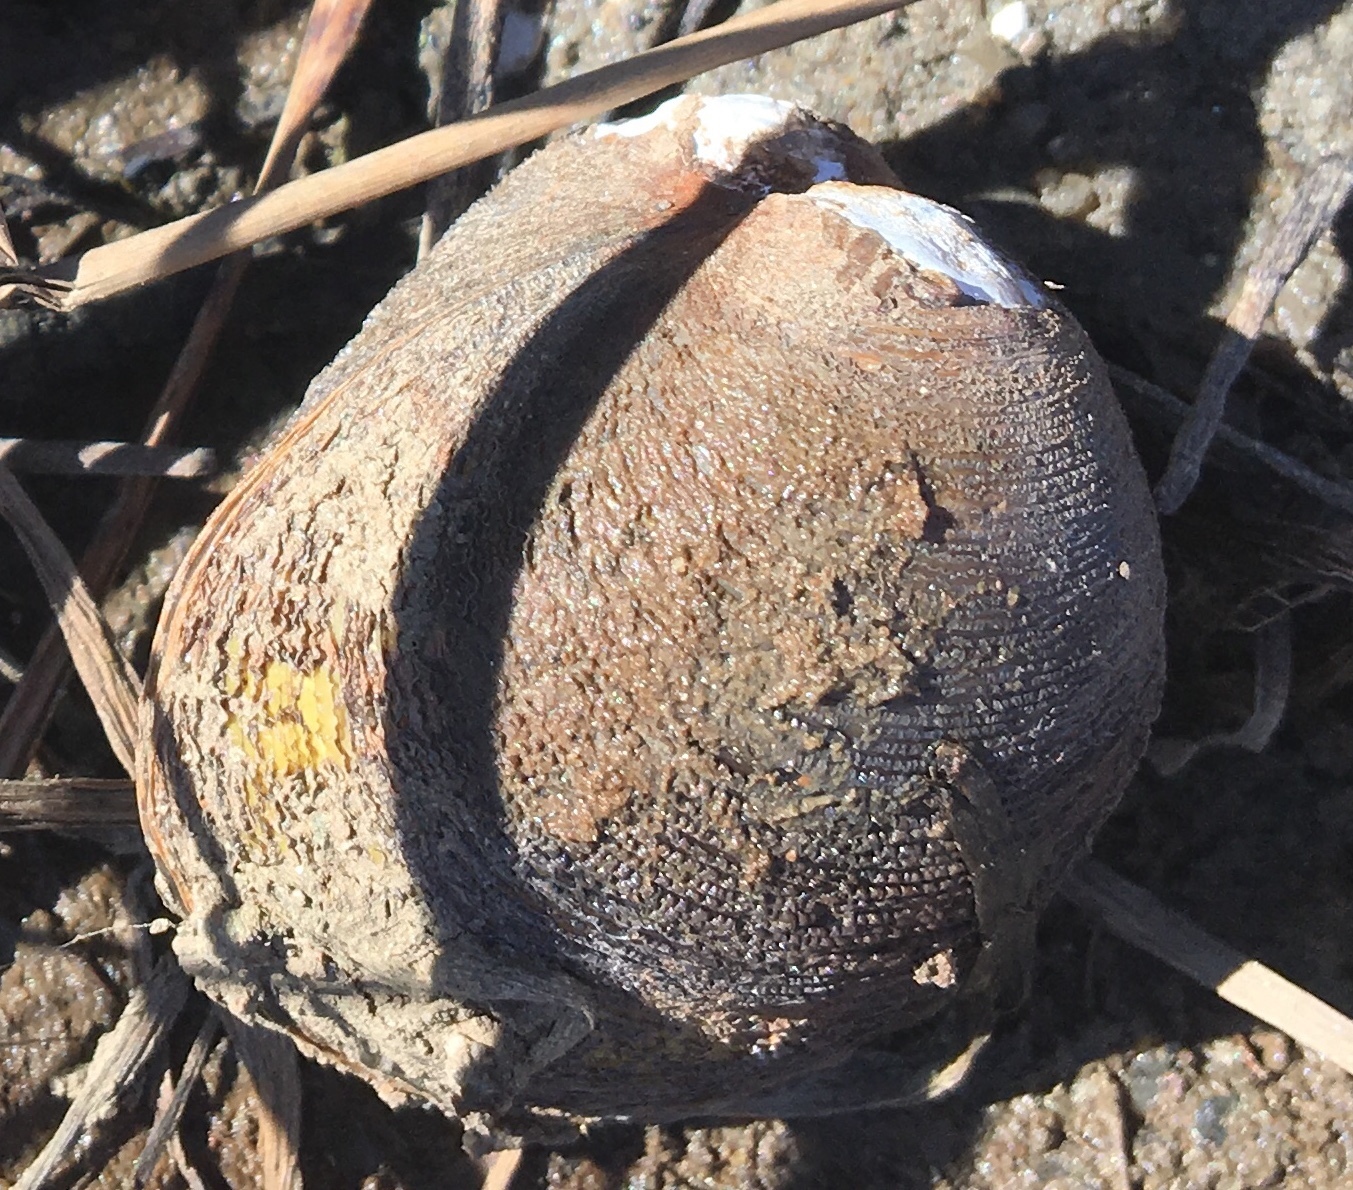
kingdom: Animalia
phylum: Mollusca
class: Bivalvia
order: Venerida
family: Cyrenidae
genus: Polymesoda
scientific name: Polymesoda caroliniana
